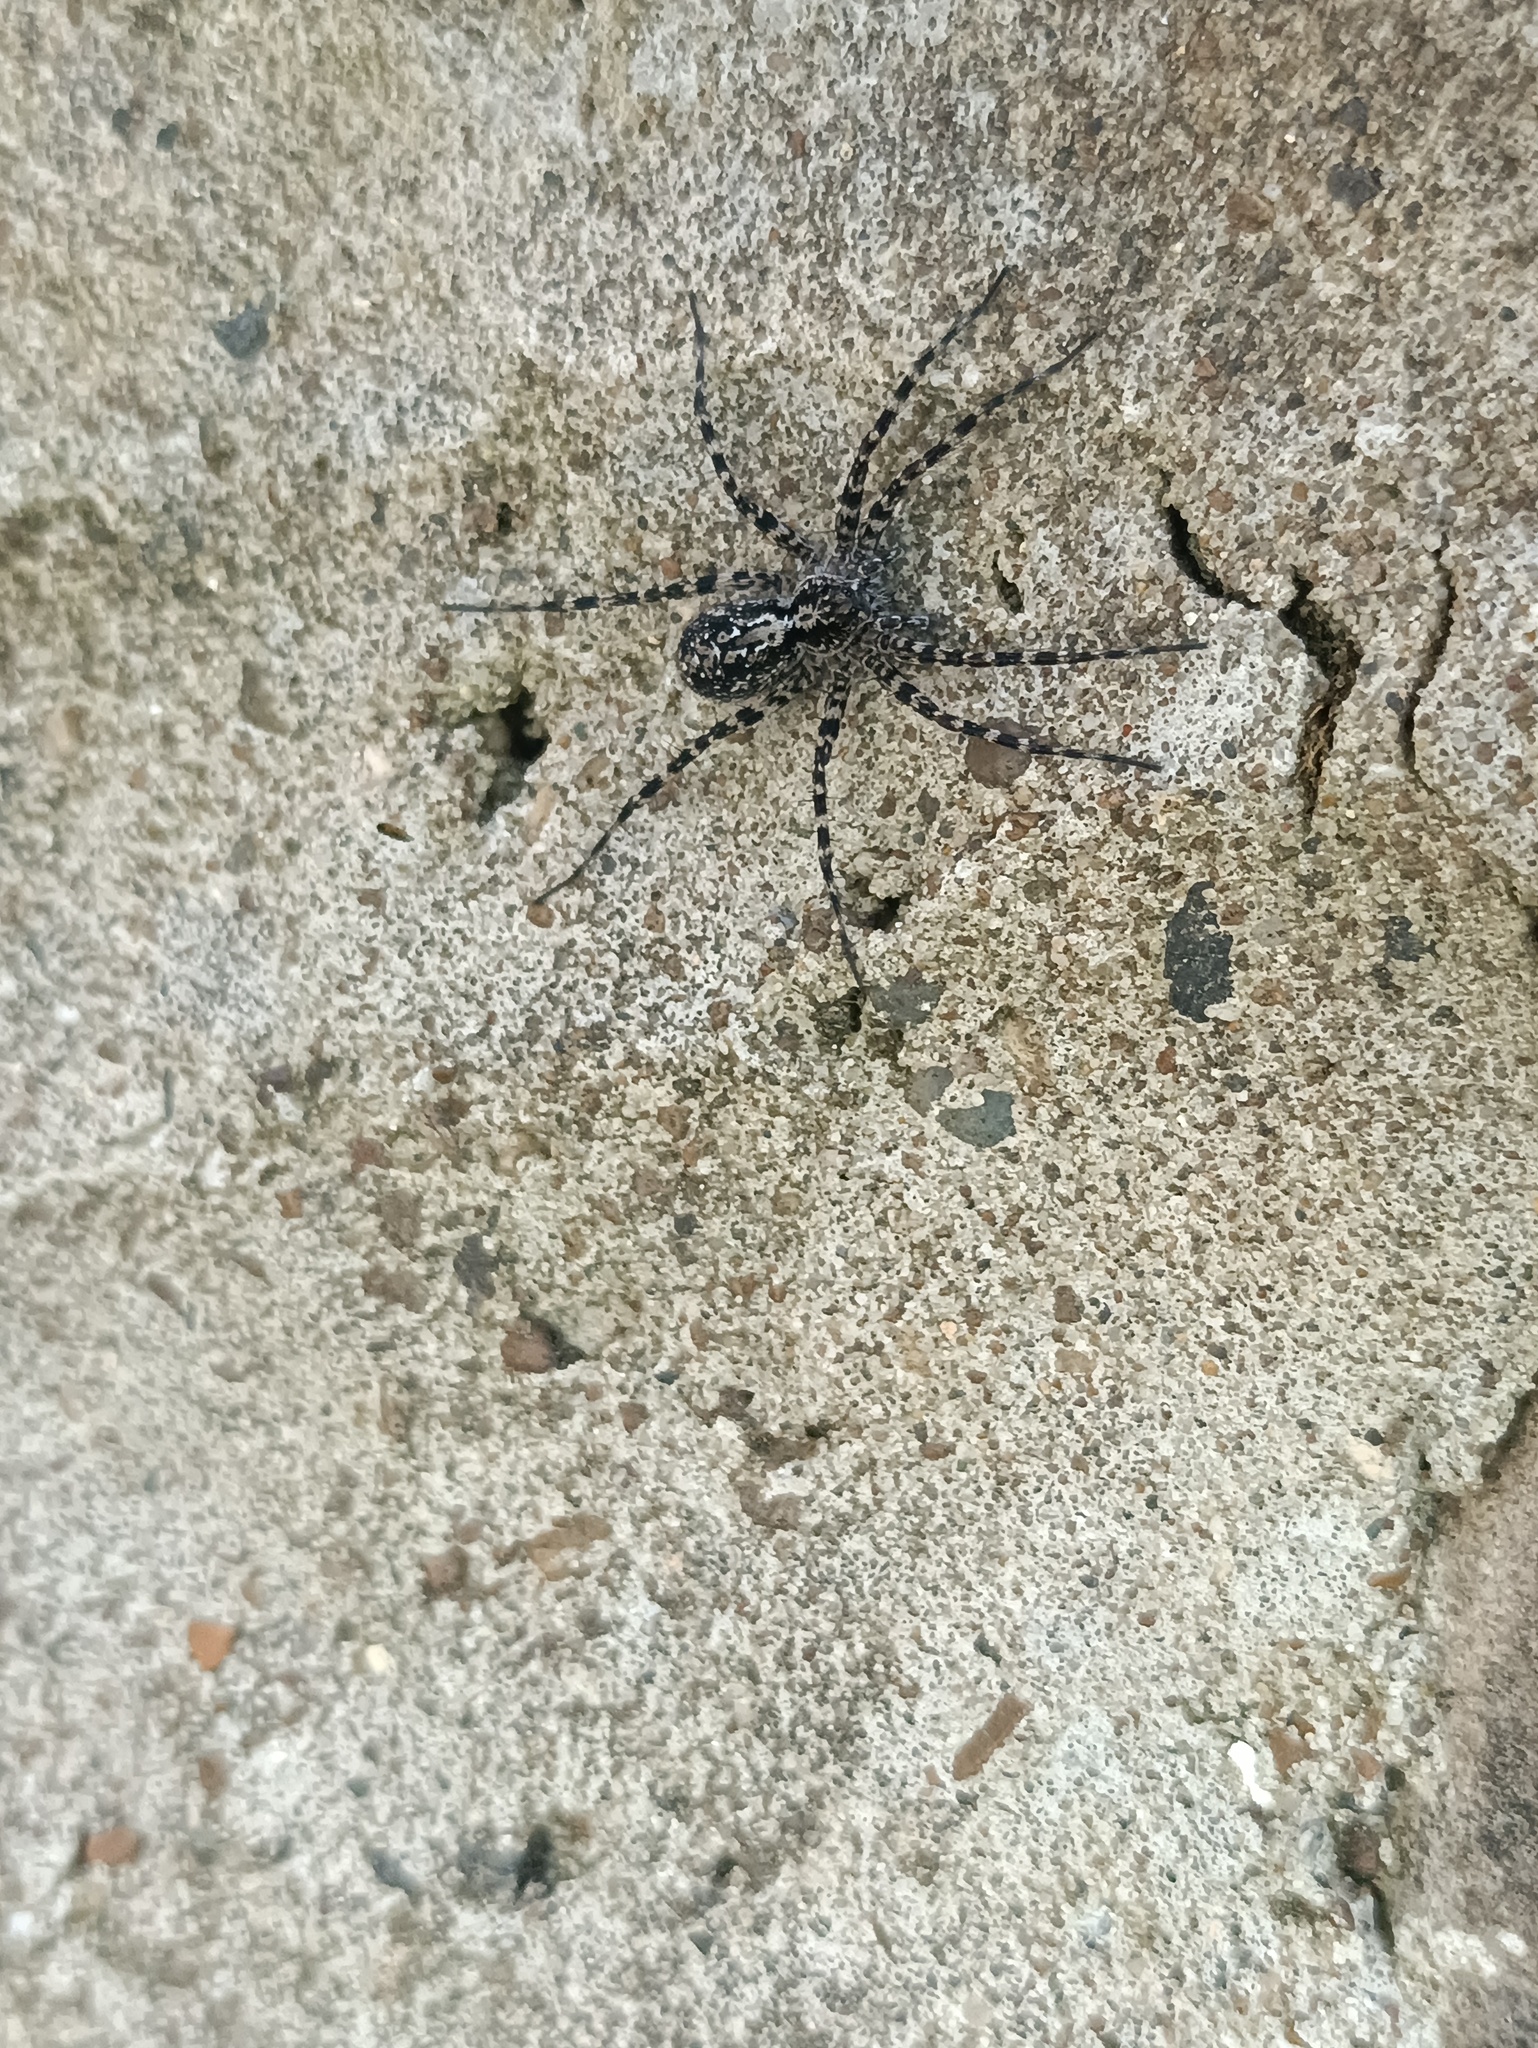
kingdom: Animalia
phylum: Arthropoda
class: Arachnida
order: Araneae
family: Lycosidae
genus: Acantholycosa
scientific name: Acantholycosa lignaria
